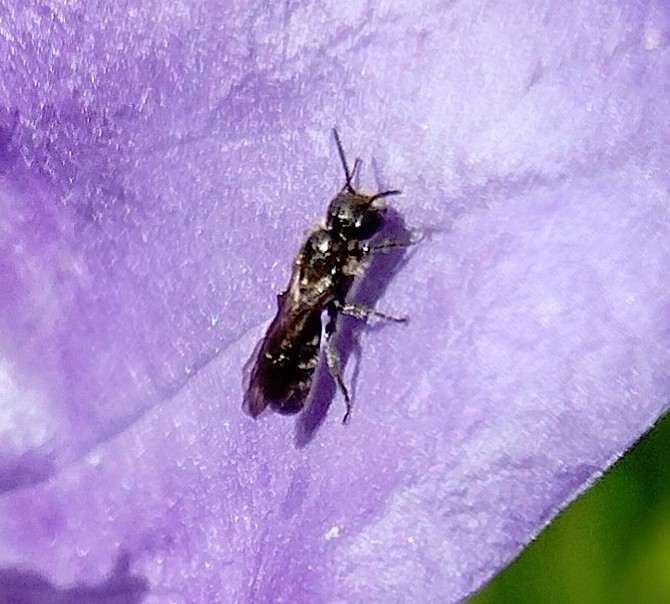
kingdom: Animalia
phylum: Arthropoda
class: Insecta
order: Hymenoptera
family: Megachilidae
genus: Chelostoma
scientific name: Chelostoma campanularum
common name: Small scissor bee
